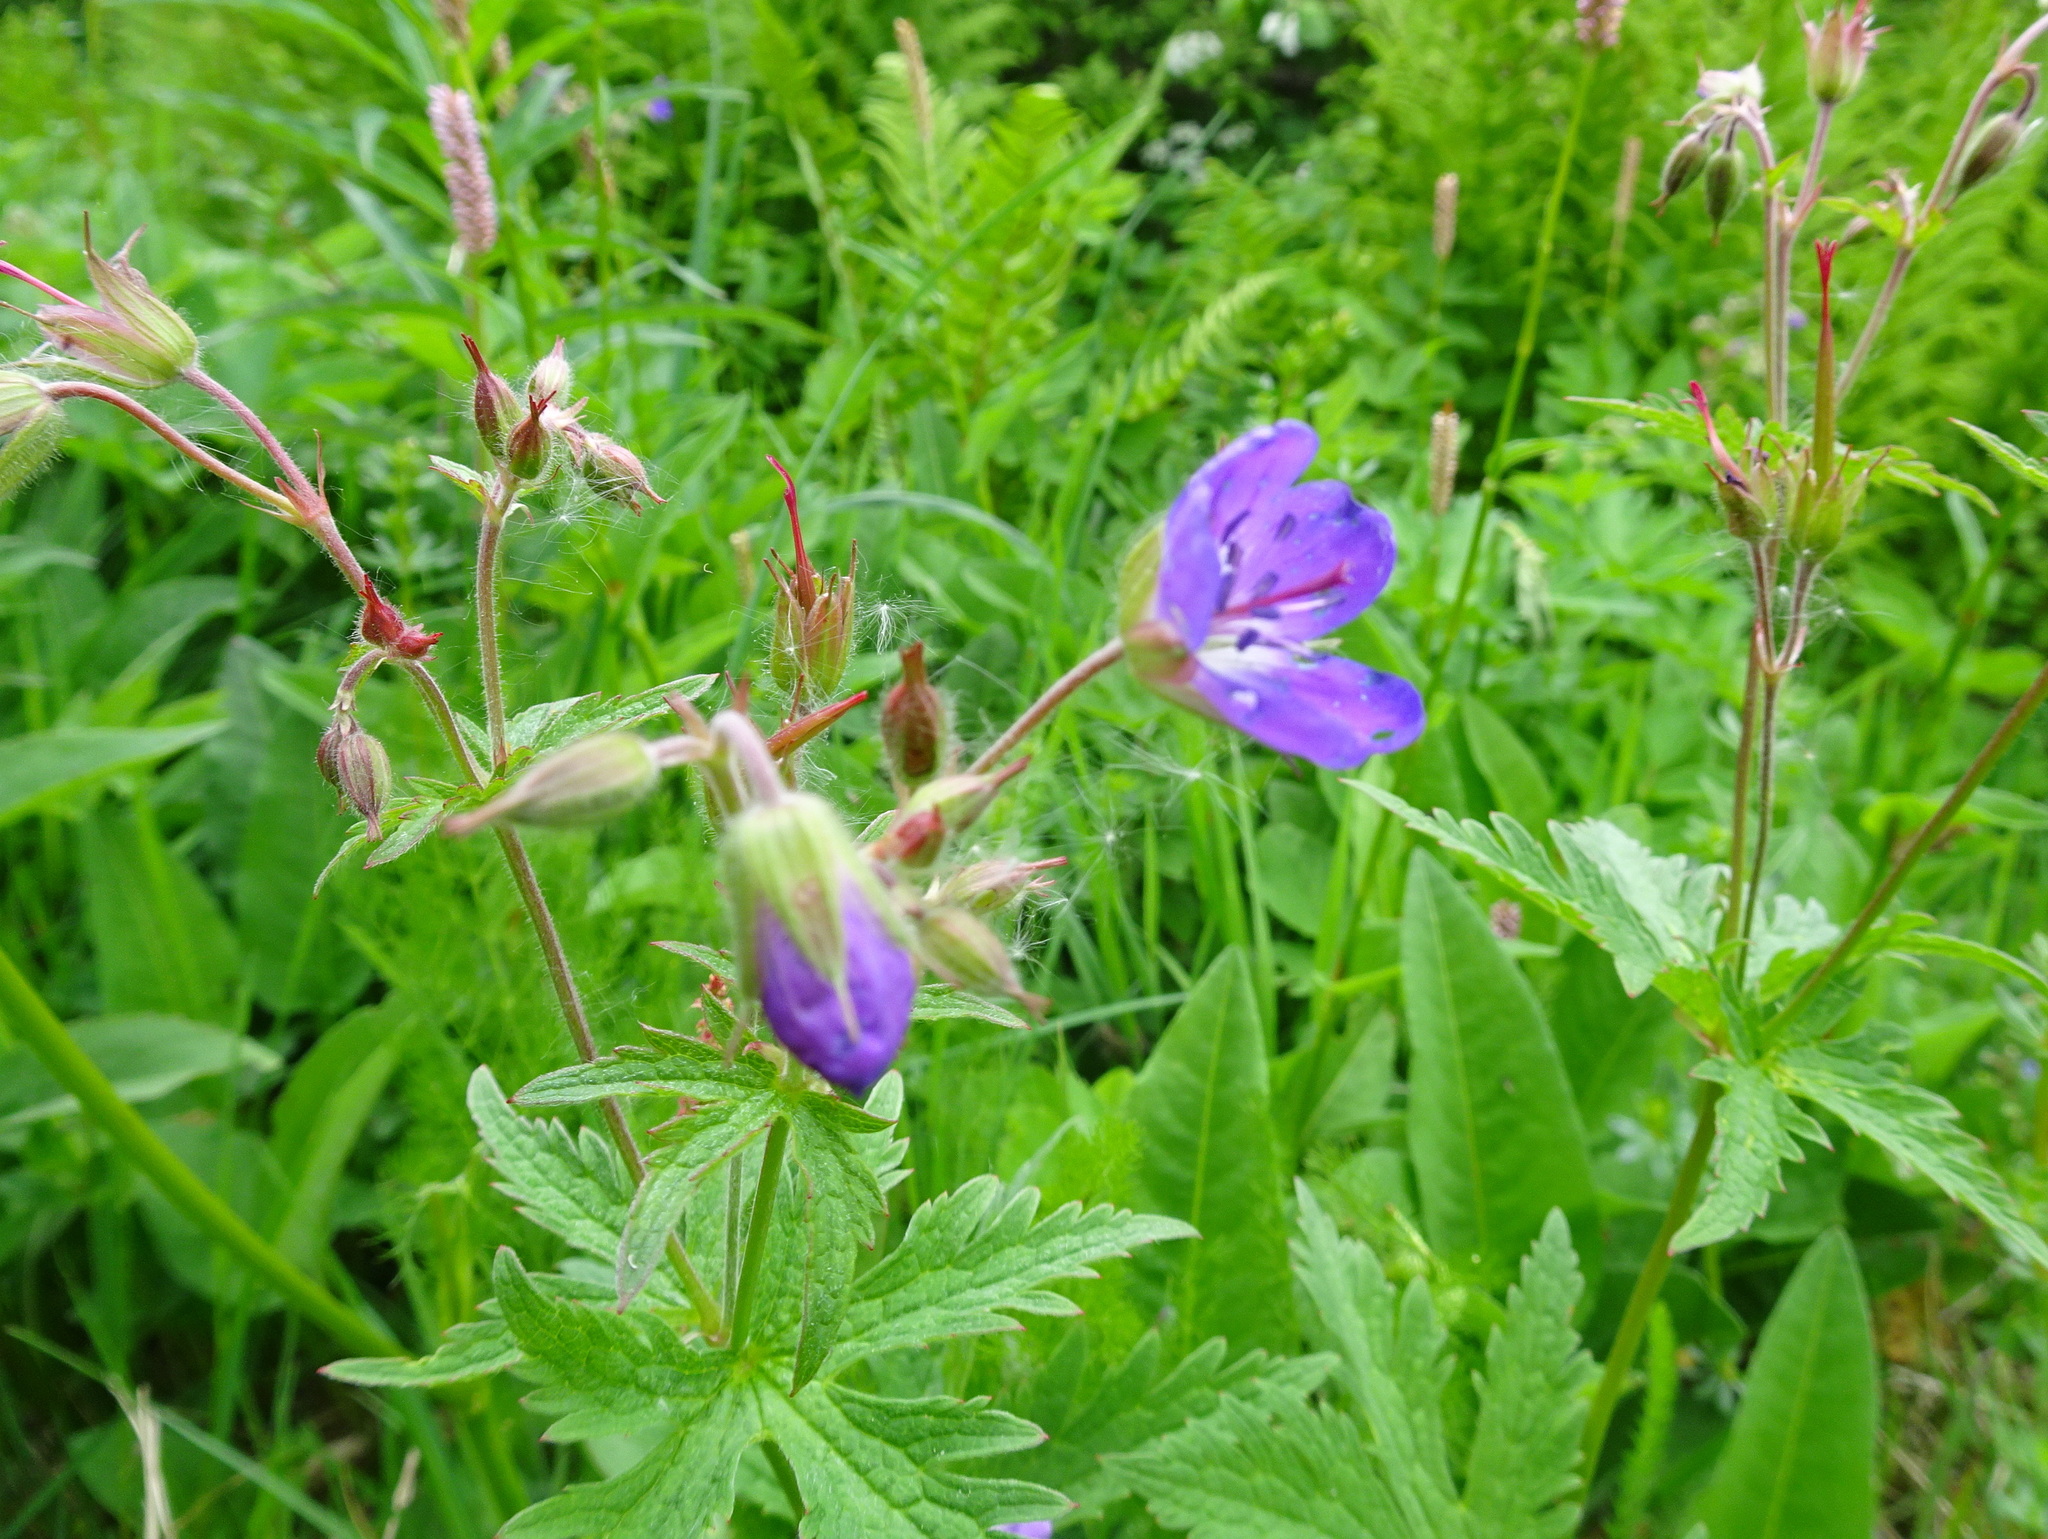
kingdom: Plantae
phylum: Tracheophyta
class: Magnoliopsida
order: Geraniales
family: Geraniaceae
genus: Geranium
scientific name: Geranium sylvaticum
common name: Wood crane's-bill
